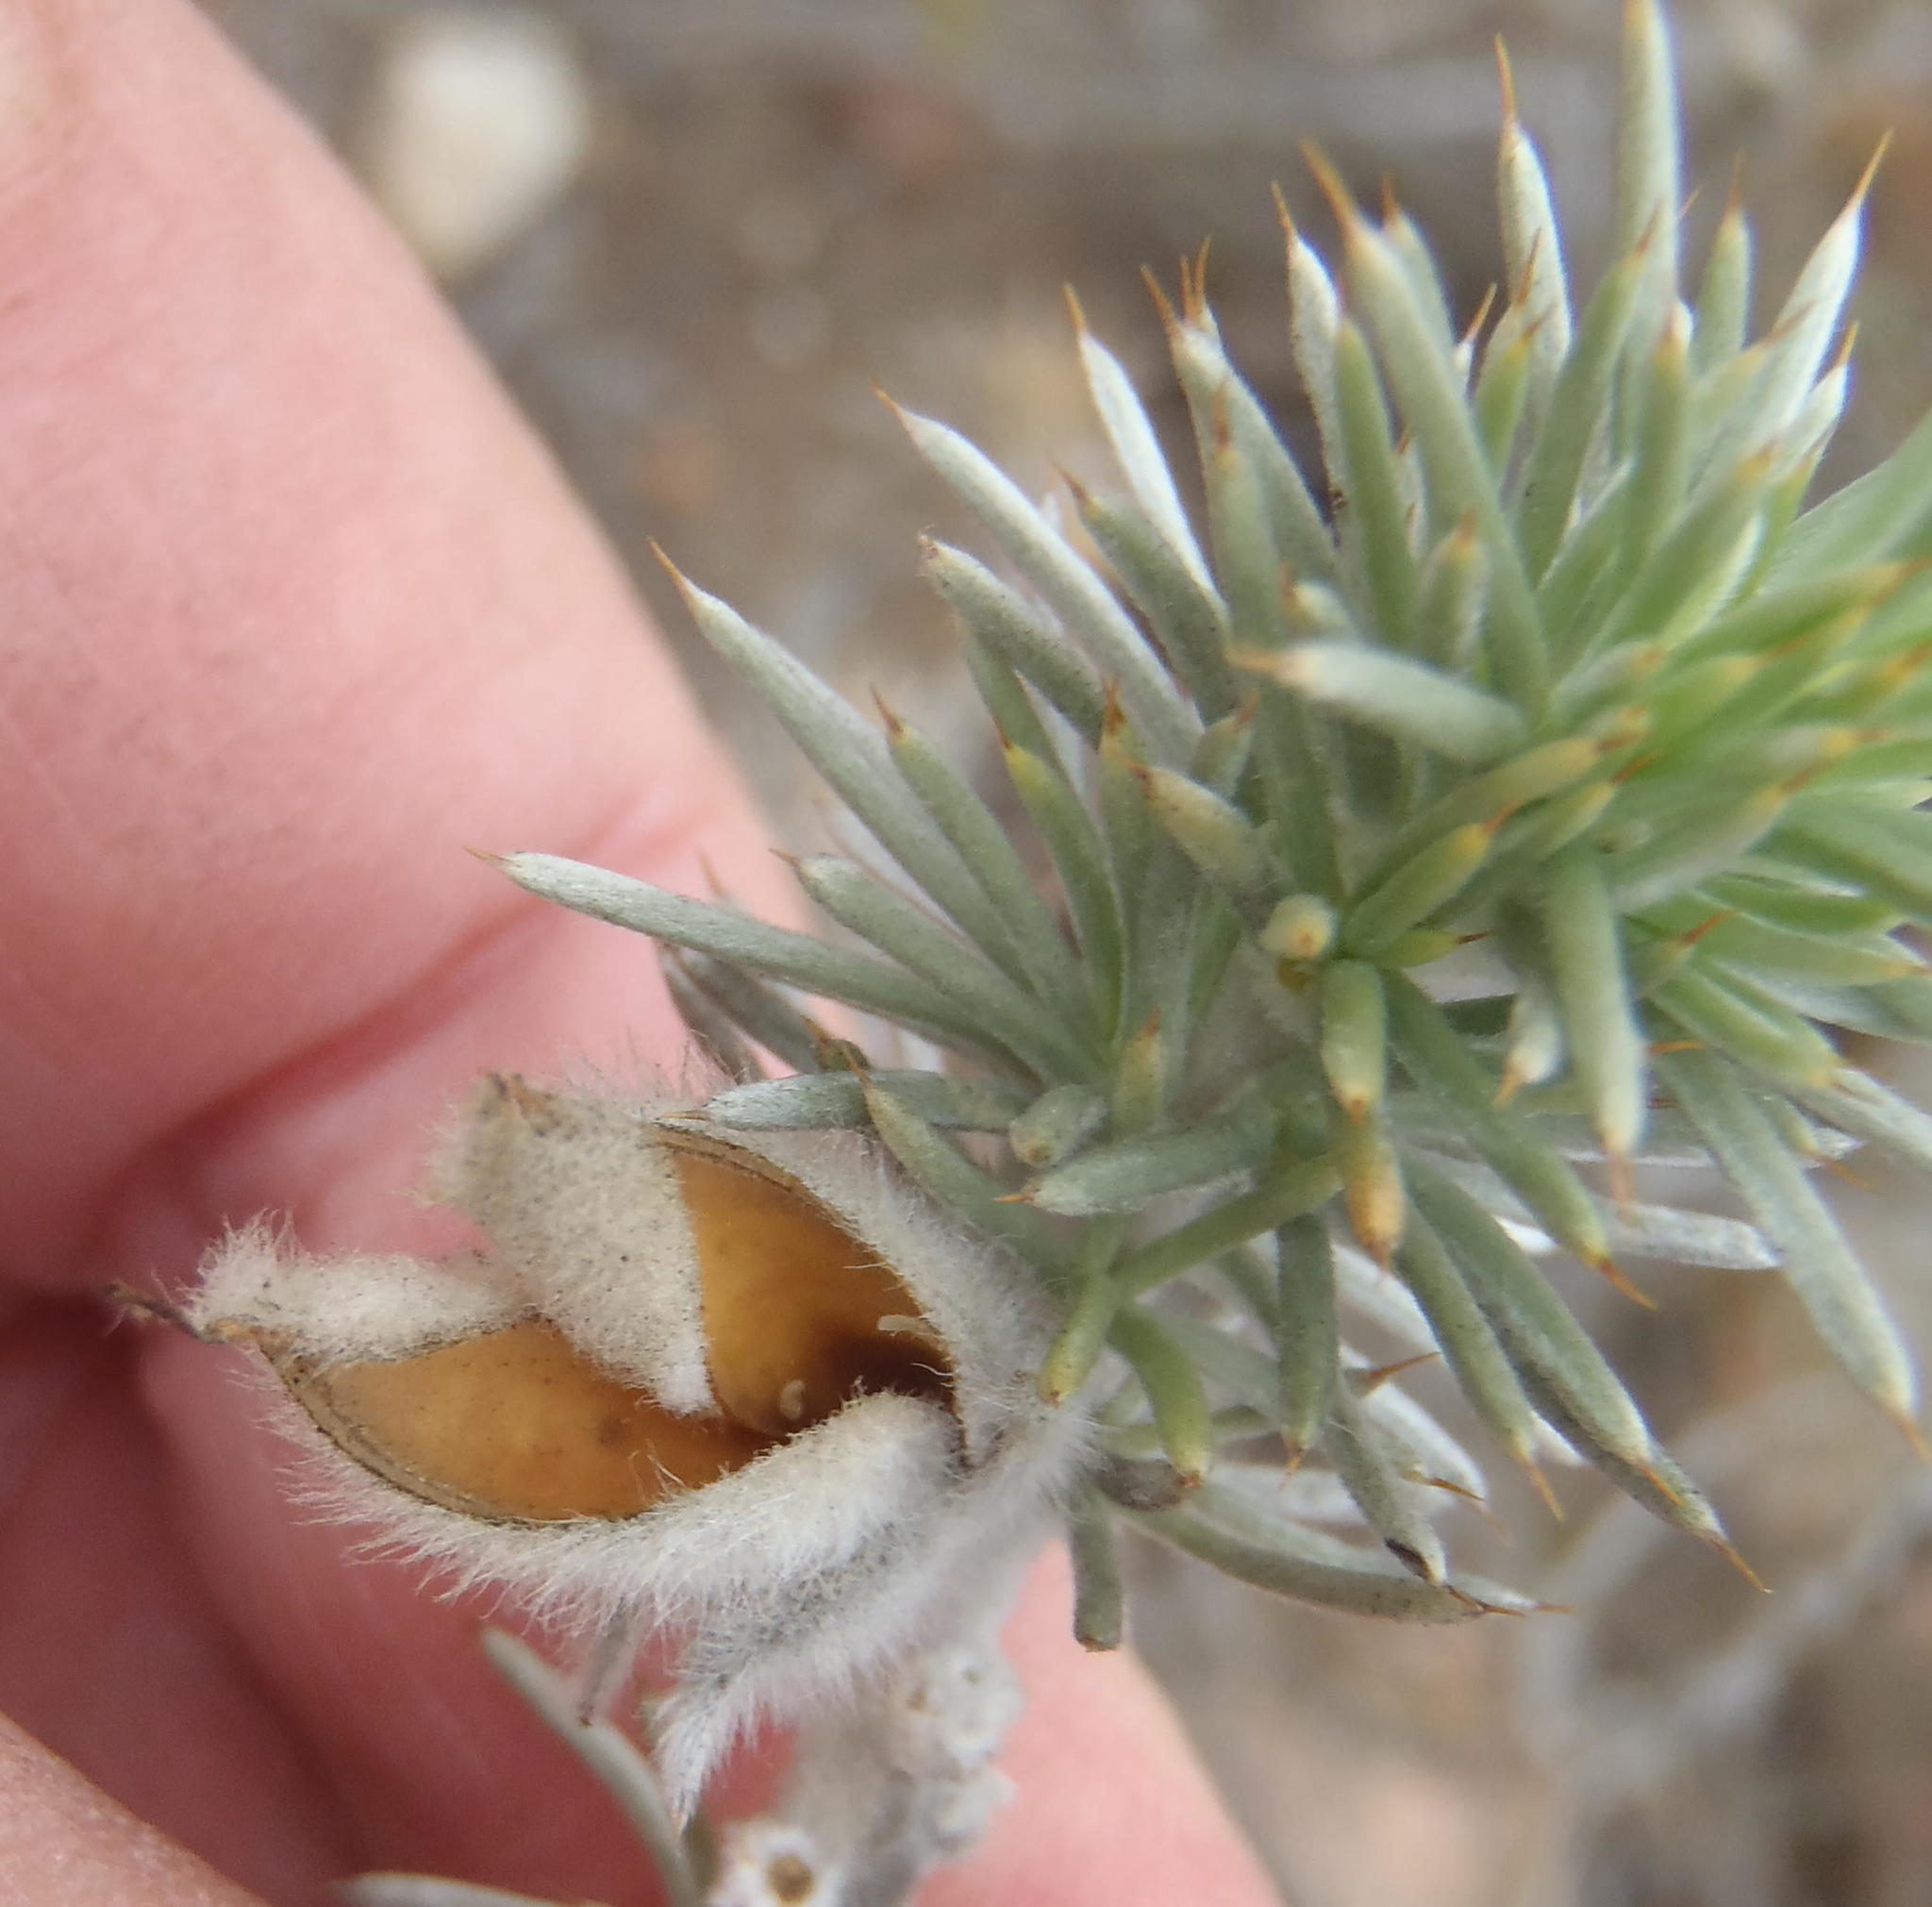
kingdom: Plantae
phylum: Tracheophyta
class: Magnoliopsida
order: Fabales
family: Fabaceae
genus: Aspalathus
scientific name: Aspalathus hystrix
